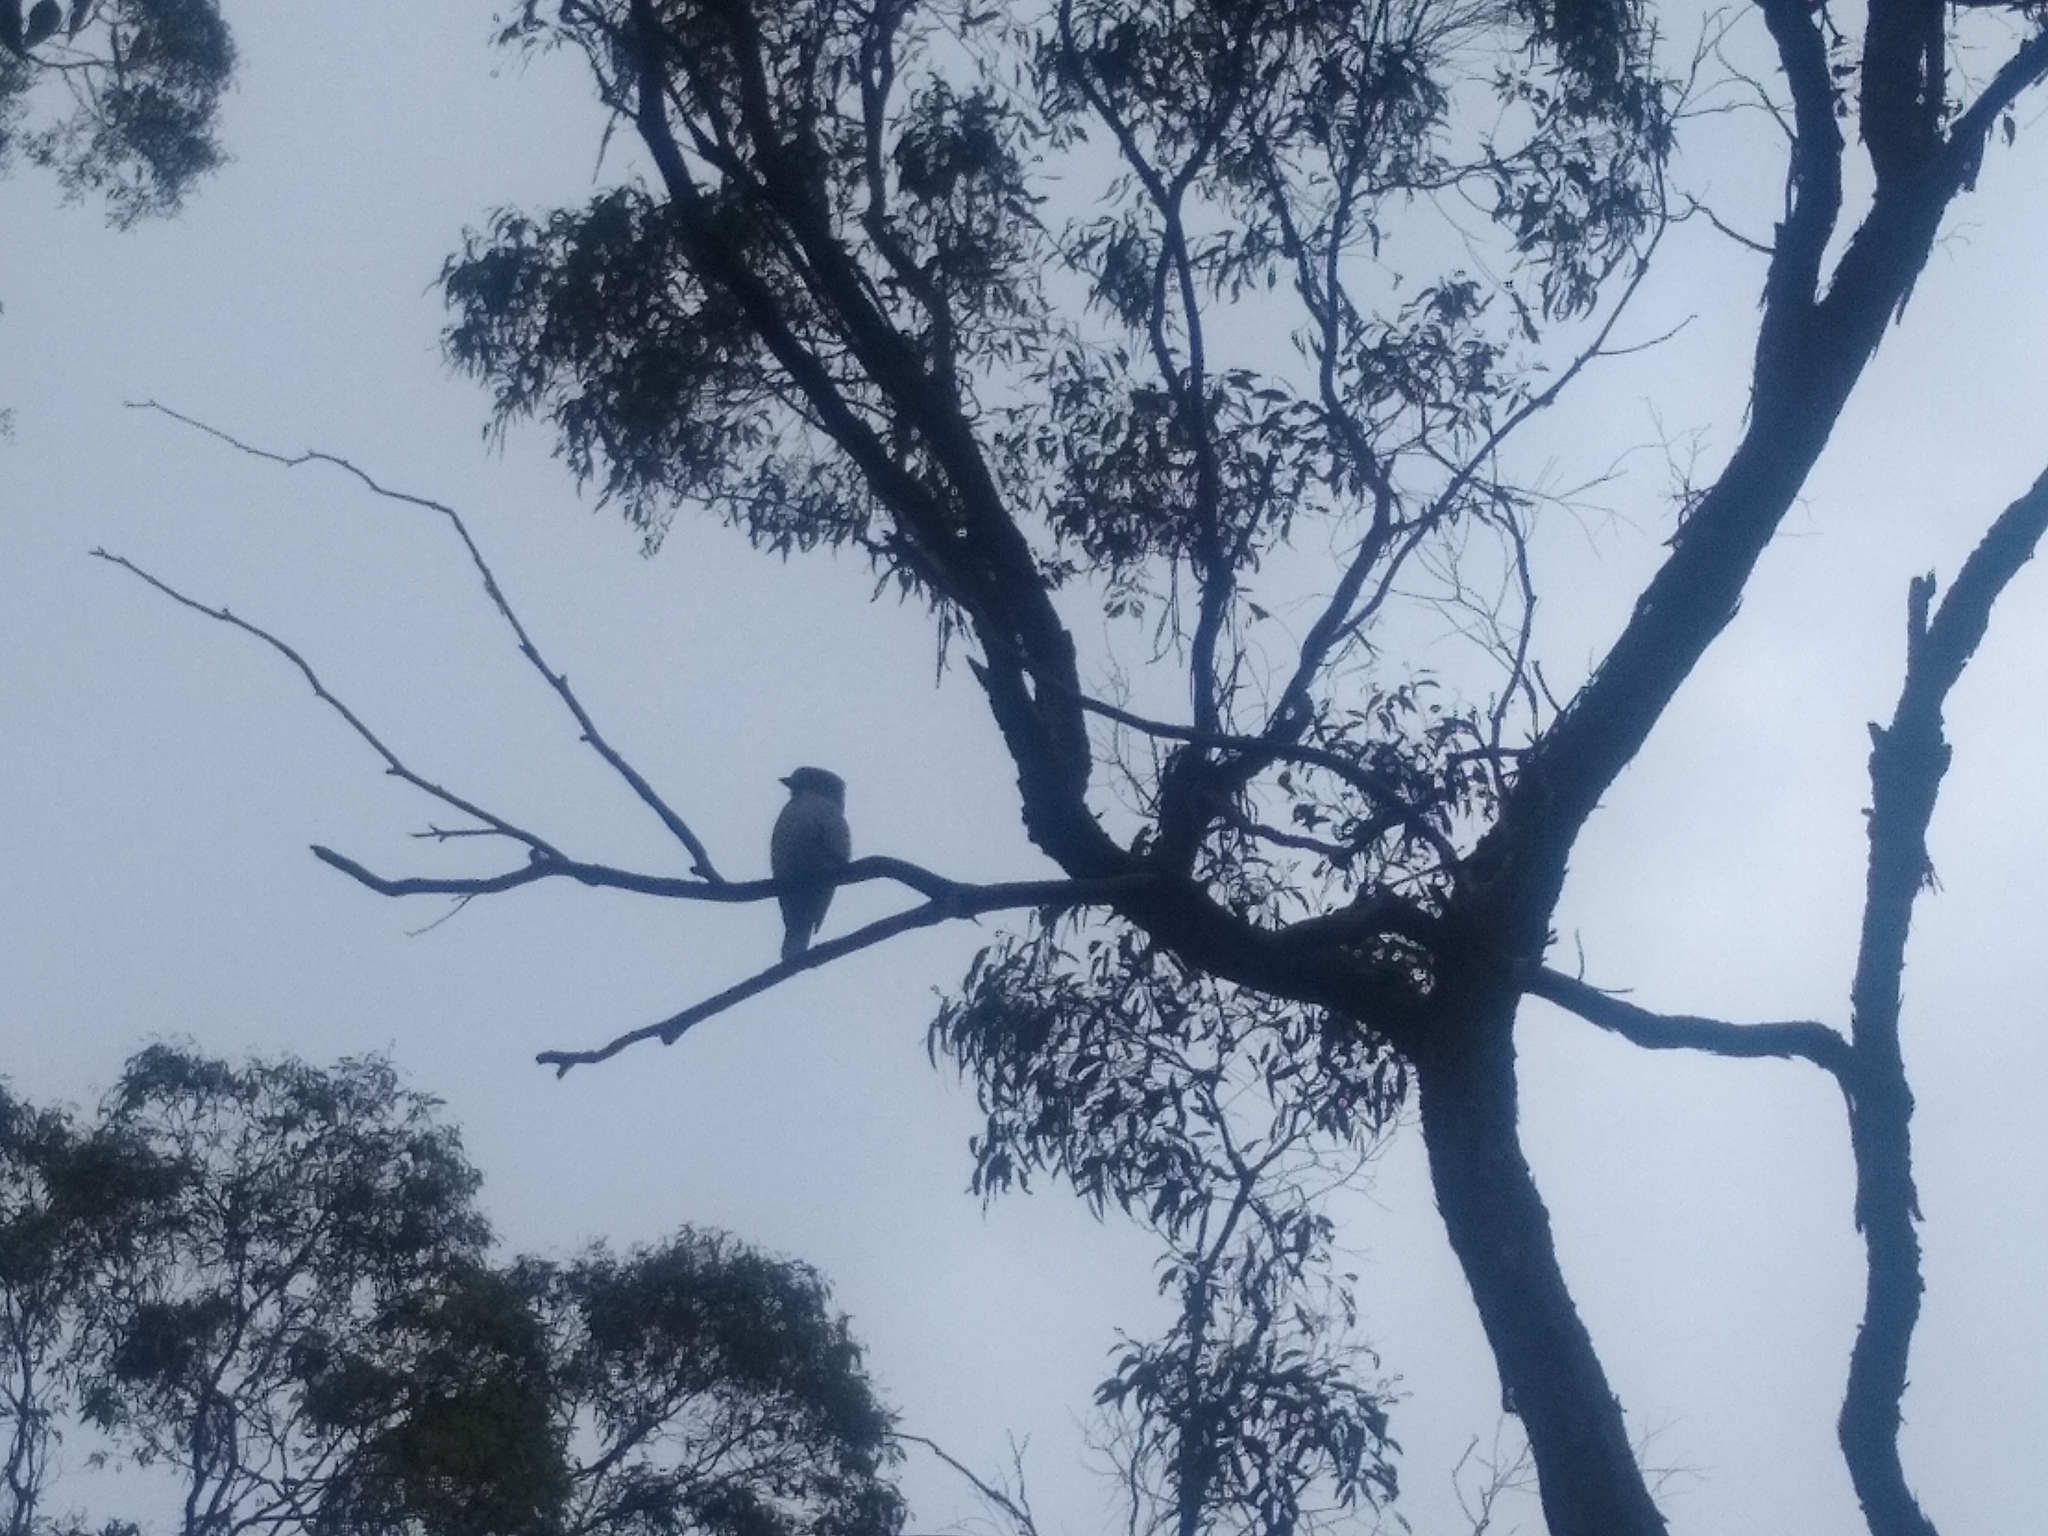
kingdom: Animalia
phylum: Chordata
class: Aves
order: Coraciiformes
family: Alcedinidae
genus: Dacelo
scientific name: Dacelo novaeguineae
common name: Laughing kookaburra
